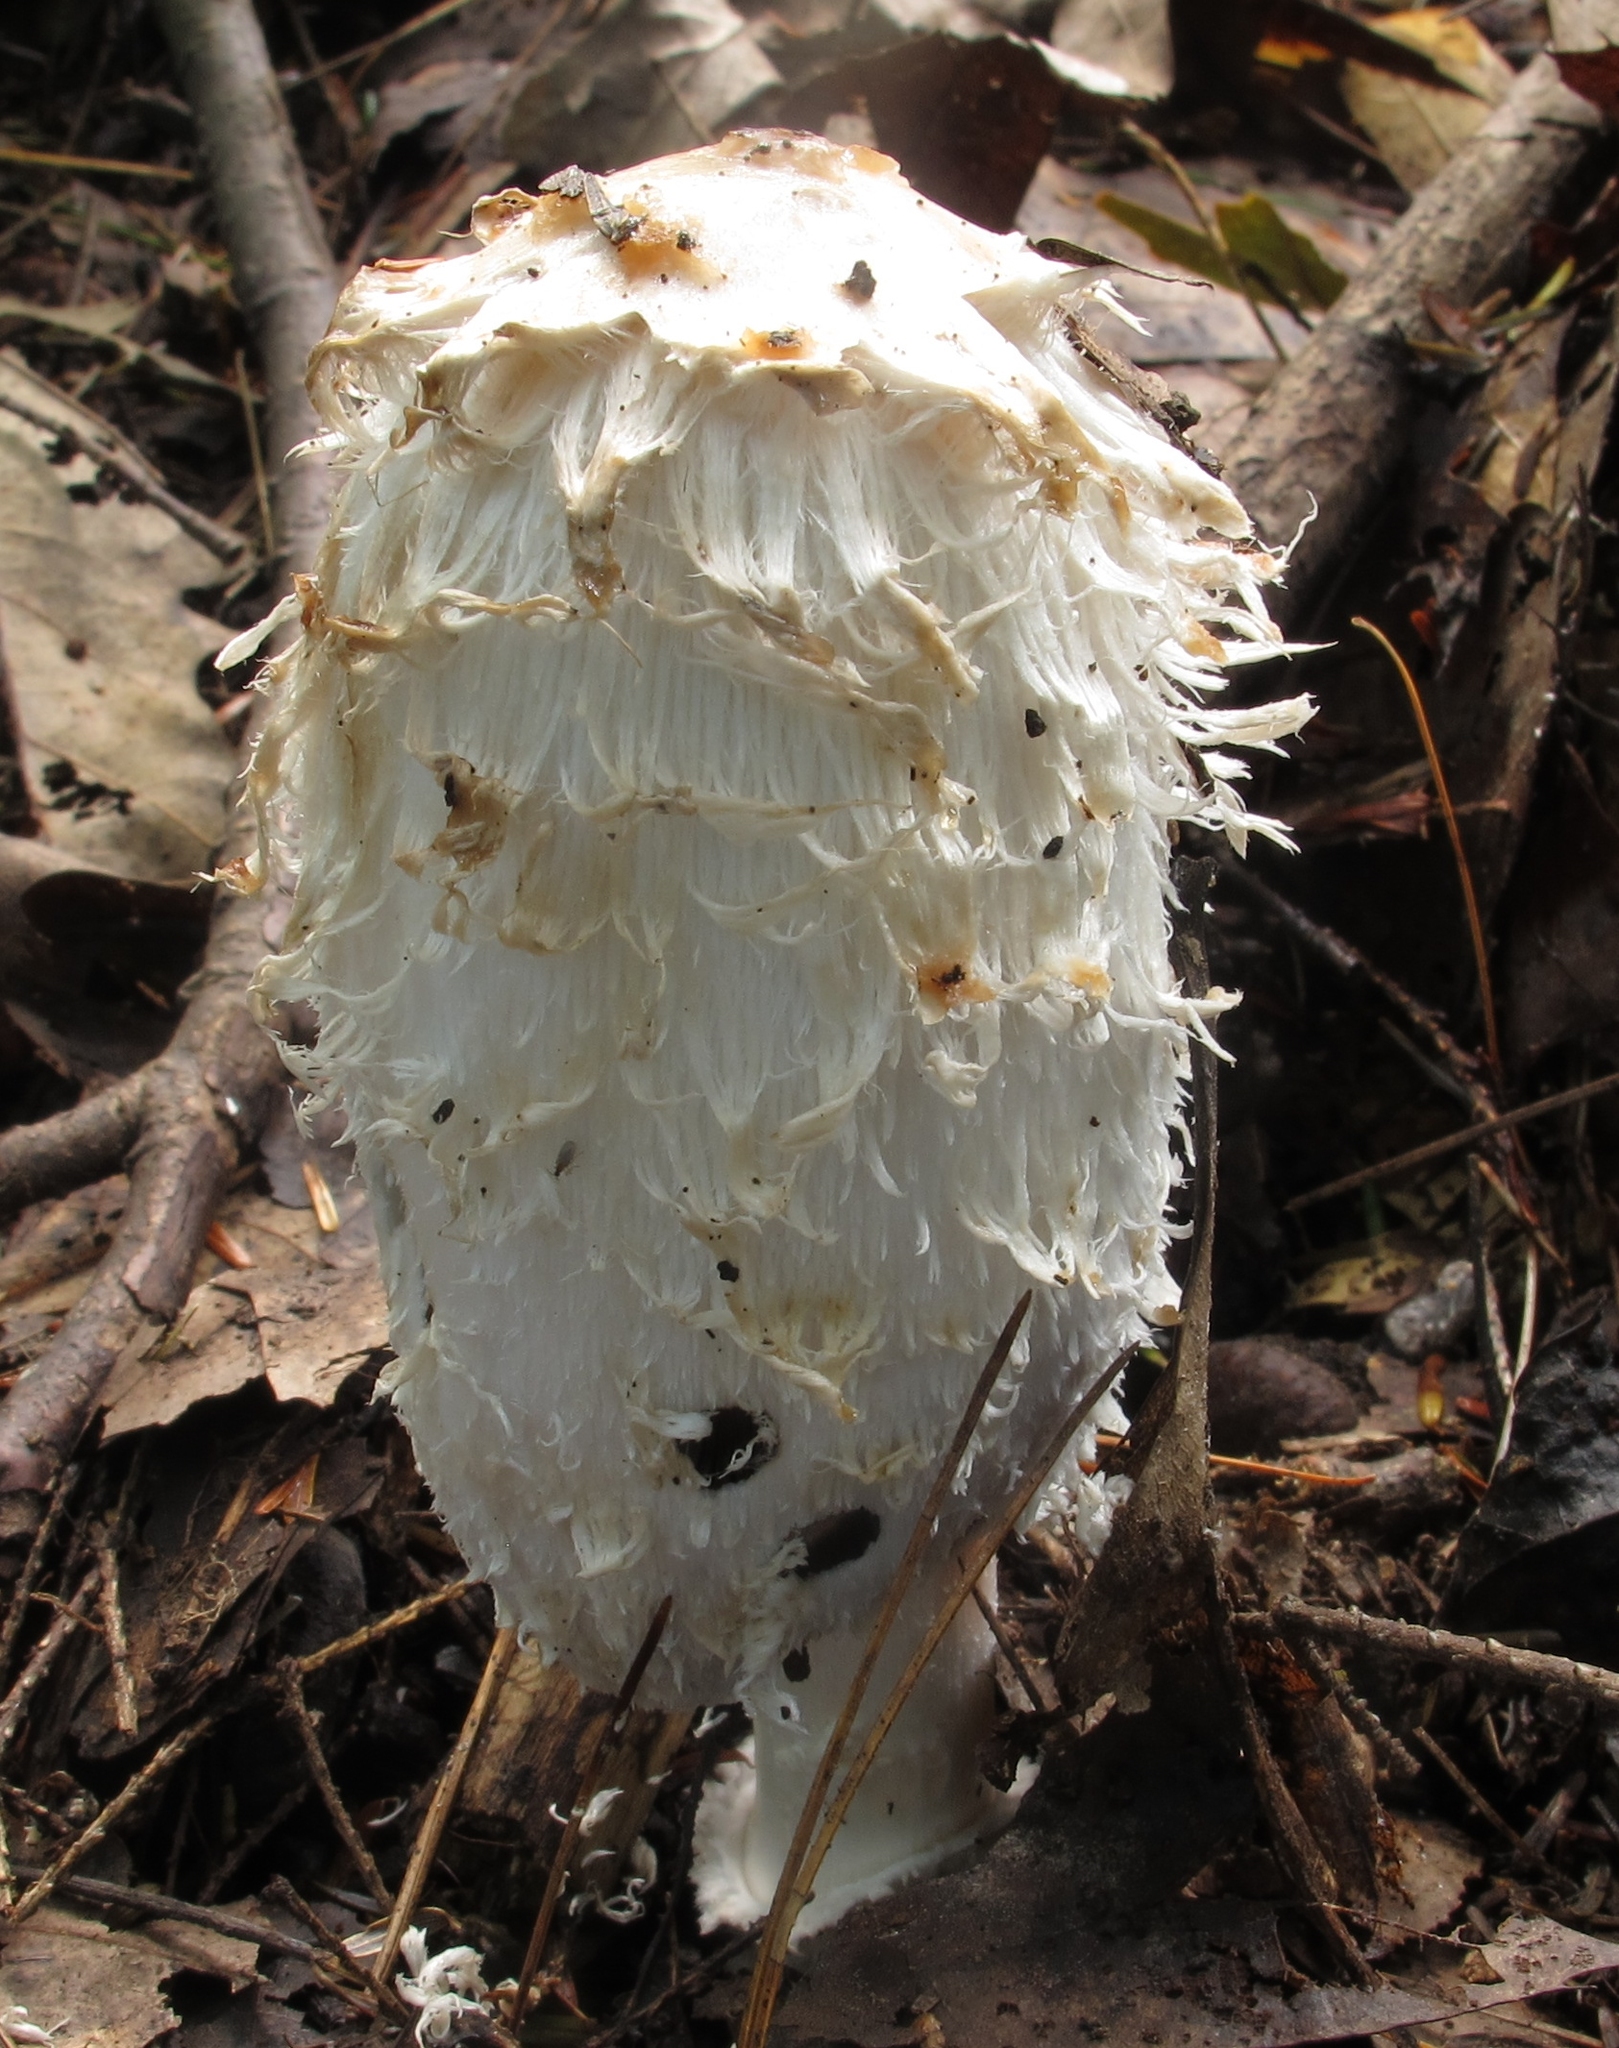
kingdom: Fungi
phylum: Basidiomycota
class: Agaricomycetes
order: Agaricales
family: Agaricaceae
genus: Coprinus
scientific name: Coprinus comatus
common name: Lawyer's wig
